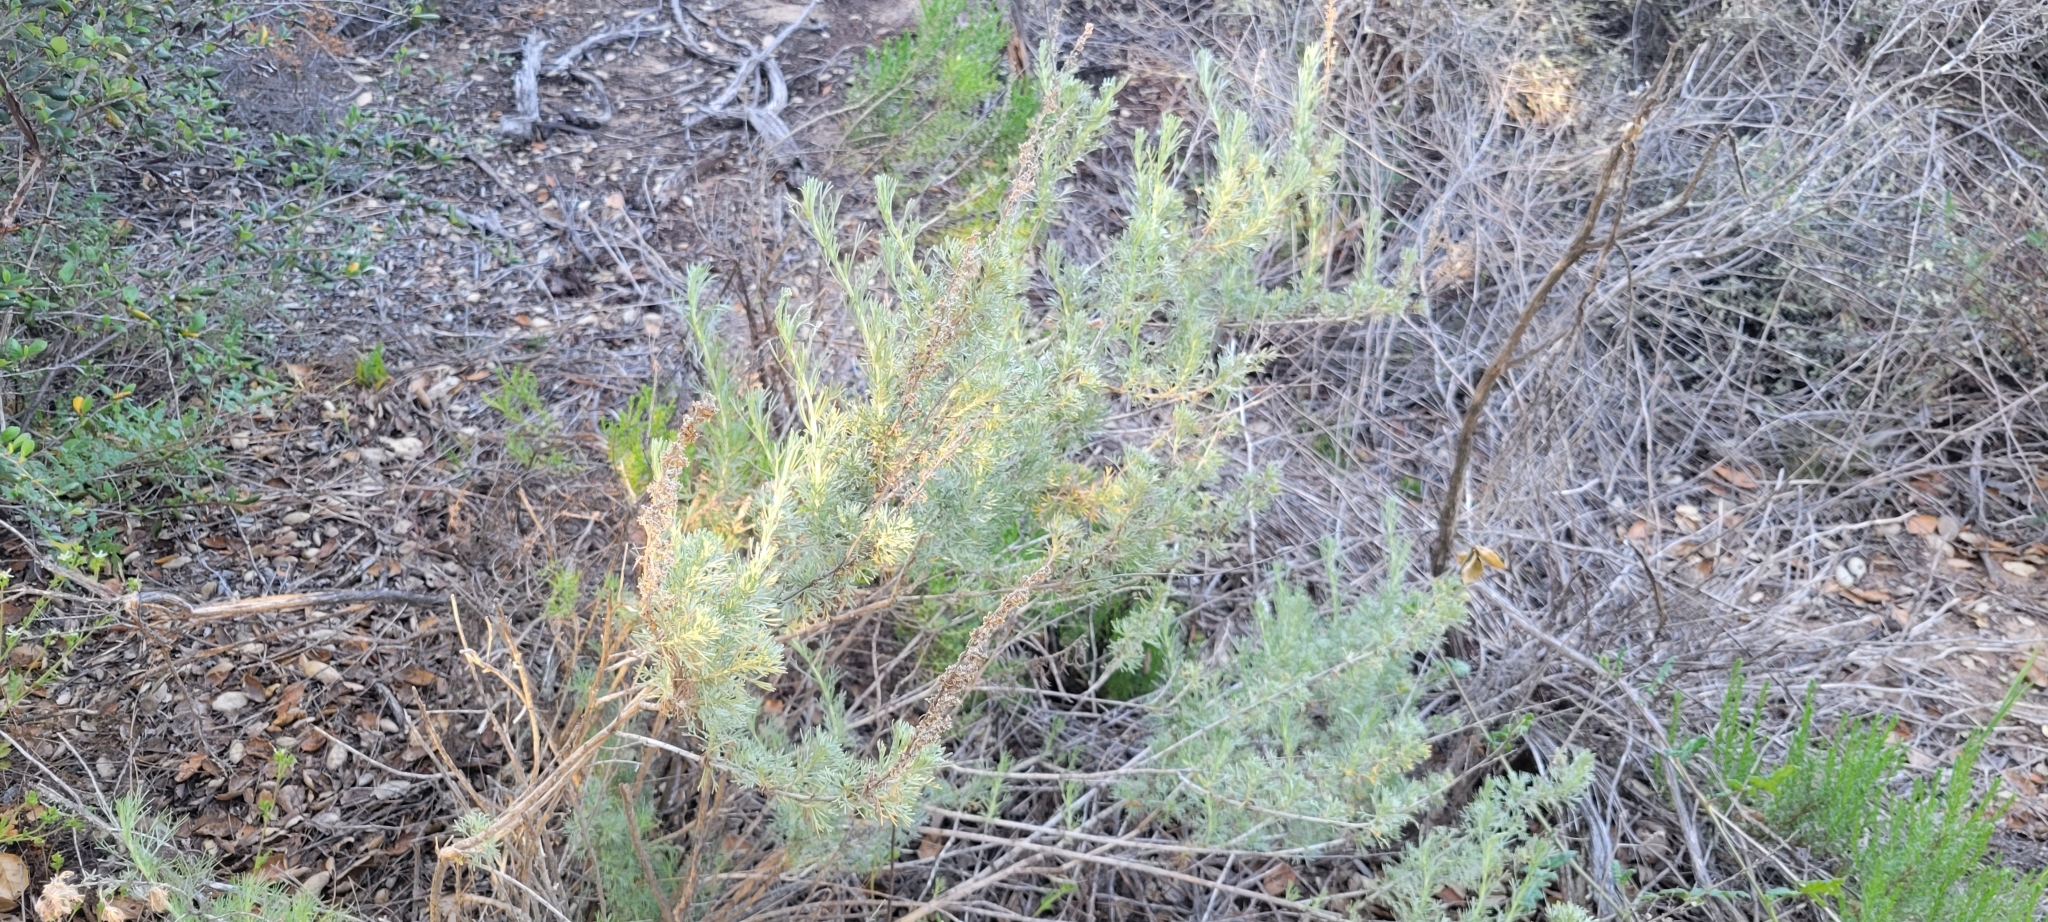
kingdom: Plantae
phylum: Tracheophyta
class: Magnoliopsida
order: Asterales
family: Asteraceae
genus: Artemisia
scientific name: Artemisia californica
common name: California sagebrush
